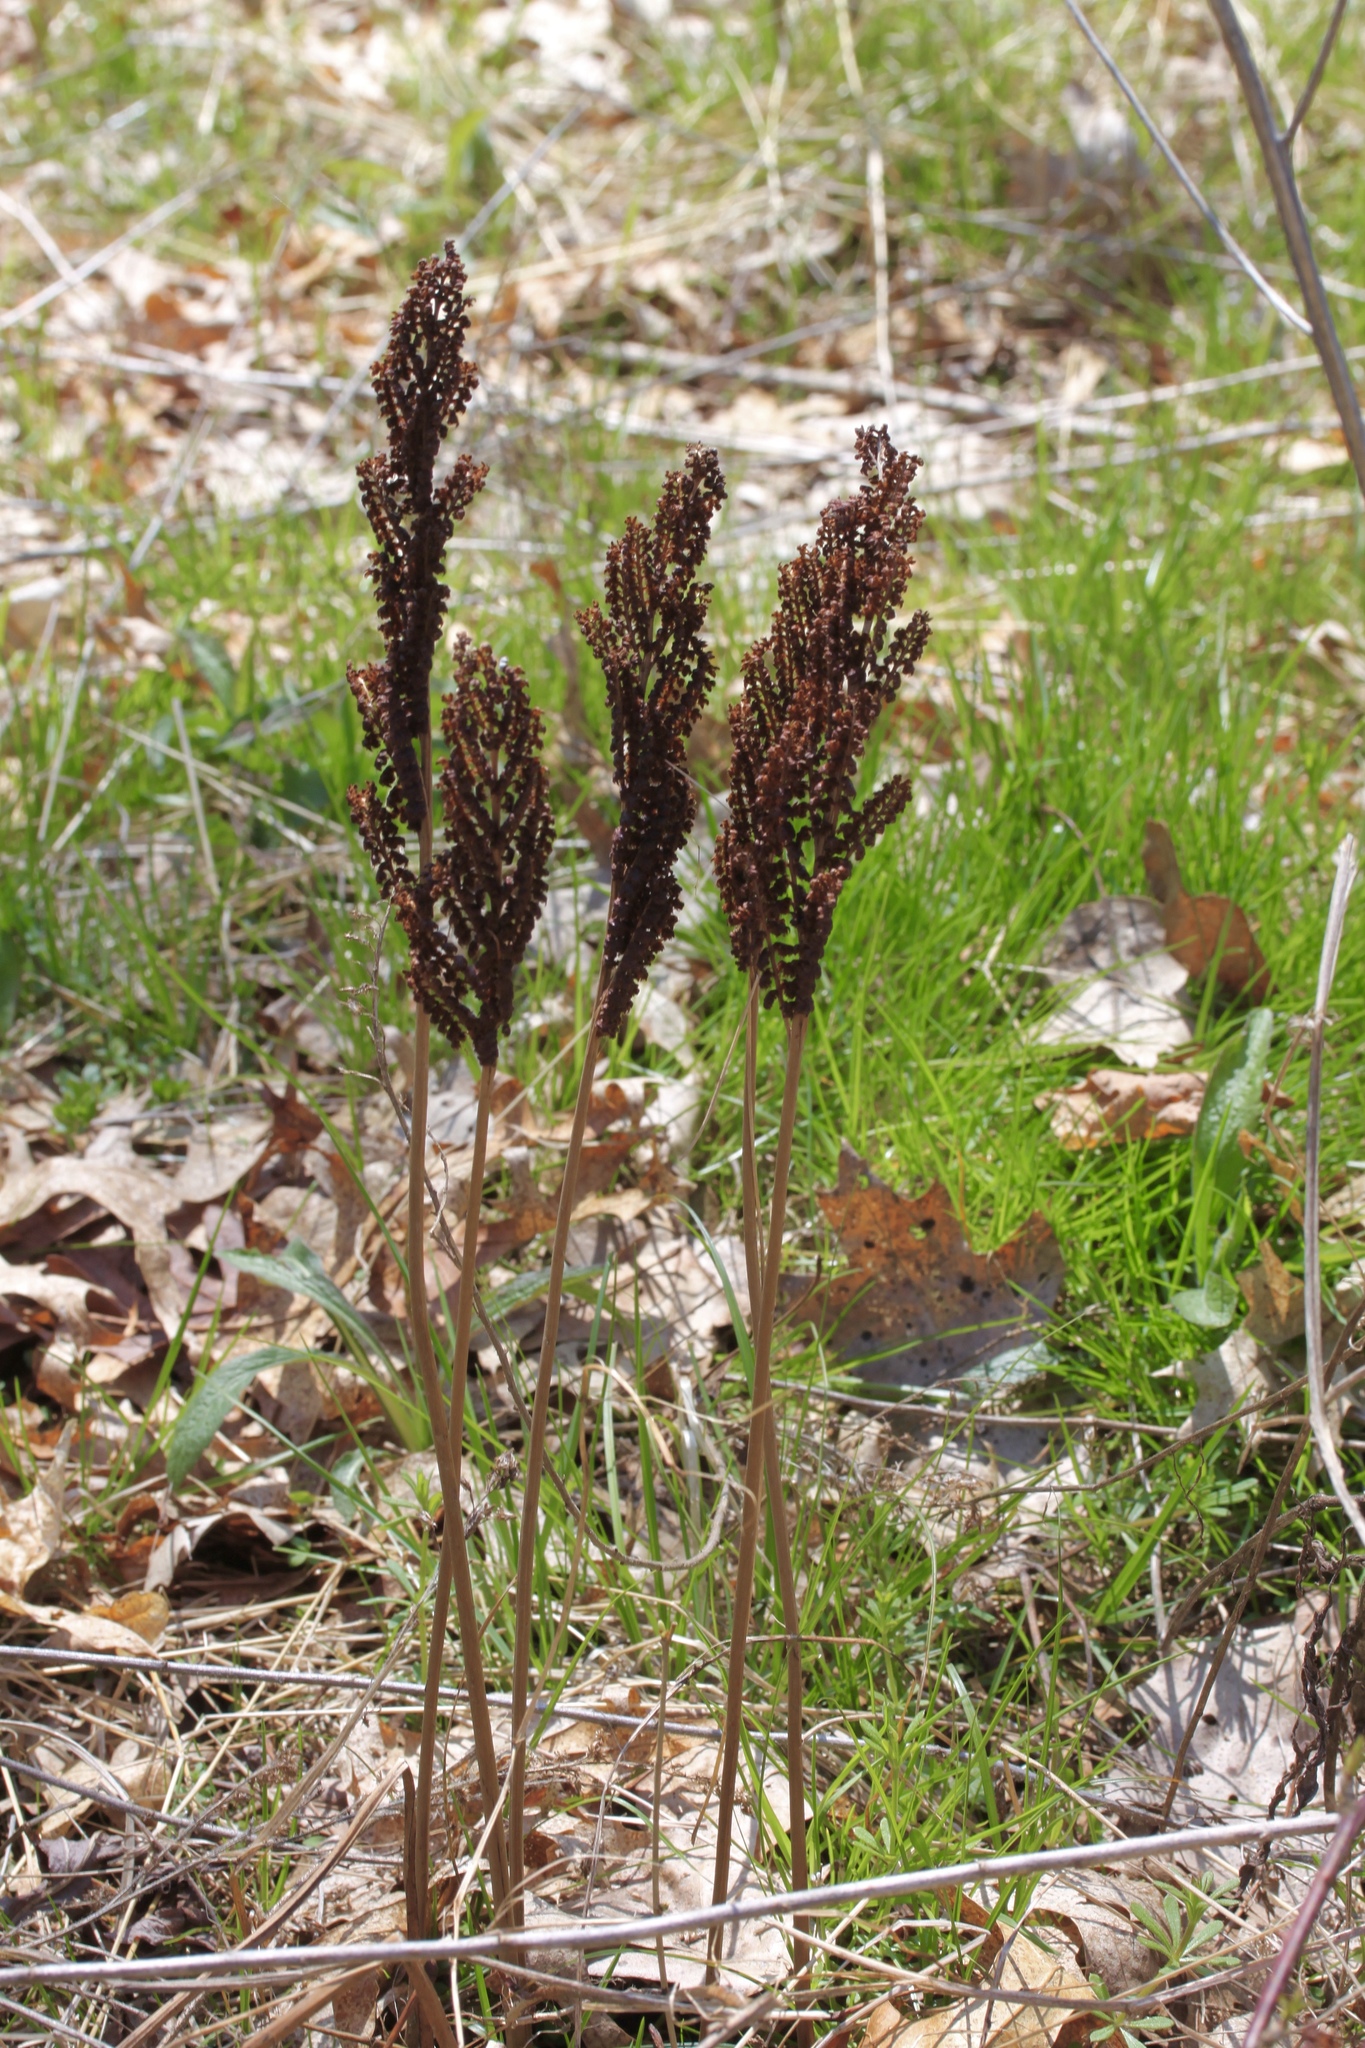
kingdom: Plantae
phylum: Tracheophyta
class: Polypodiopsida
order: Polypodiales
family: Onocleaceae
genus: Onoclea
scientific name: Onoclea sensibilis
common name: Sensitive fern
